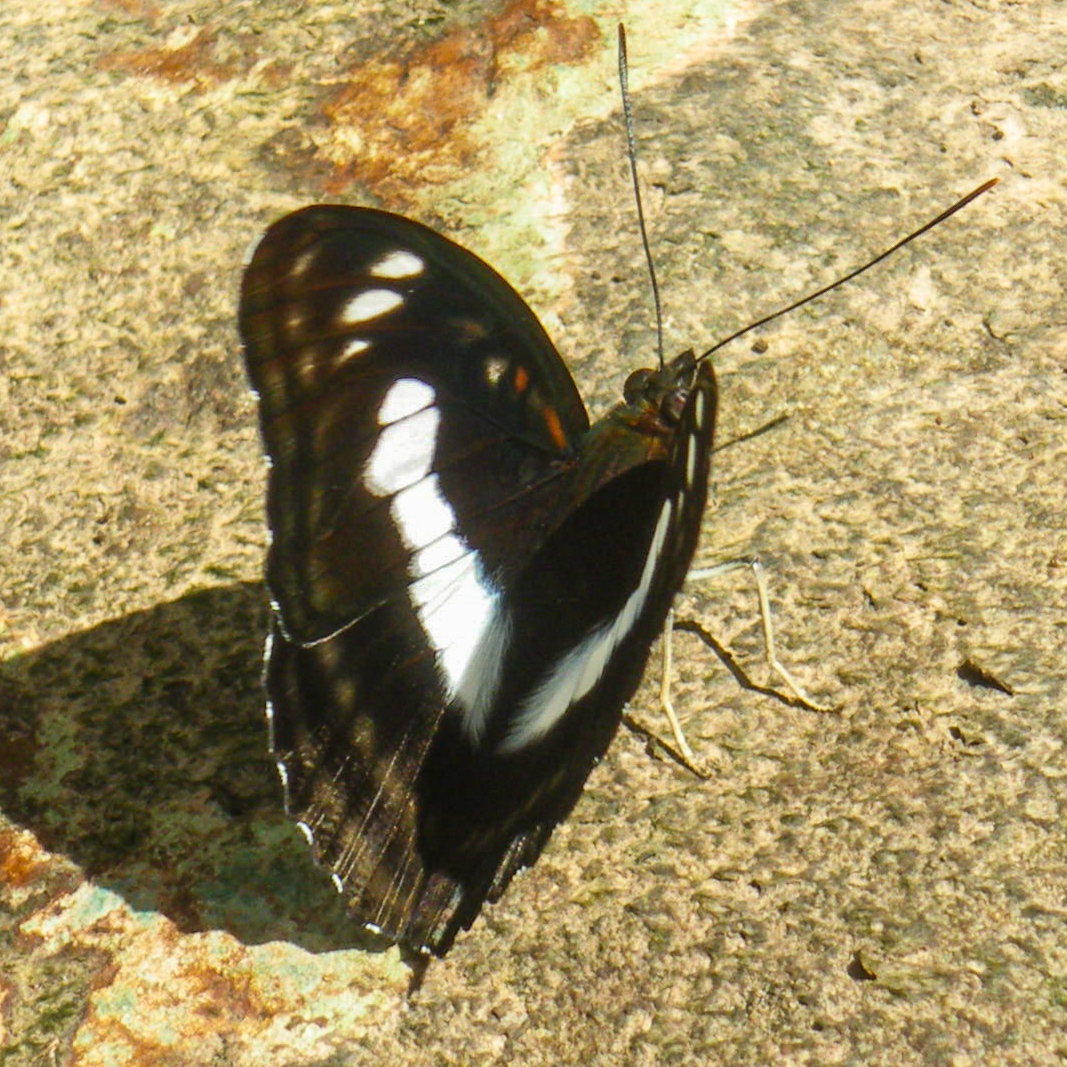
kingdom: Animalia
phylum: Arthropoda
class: Insecta
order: Lepidoptera
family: Nymphalidae
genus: Parathyma
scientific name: Parathyma selenophora
